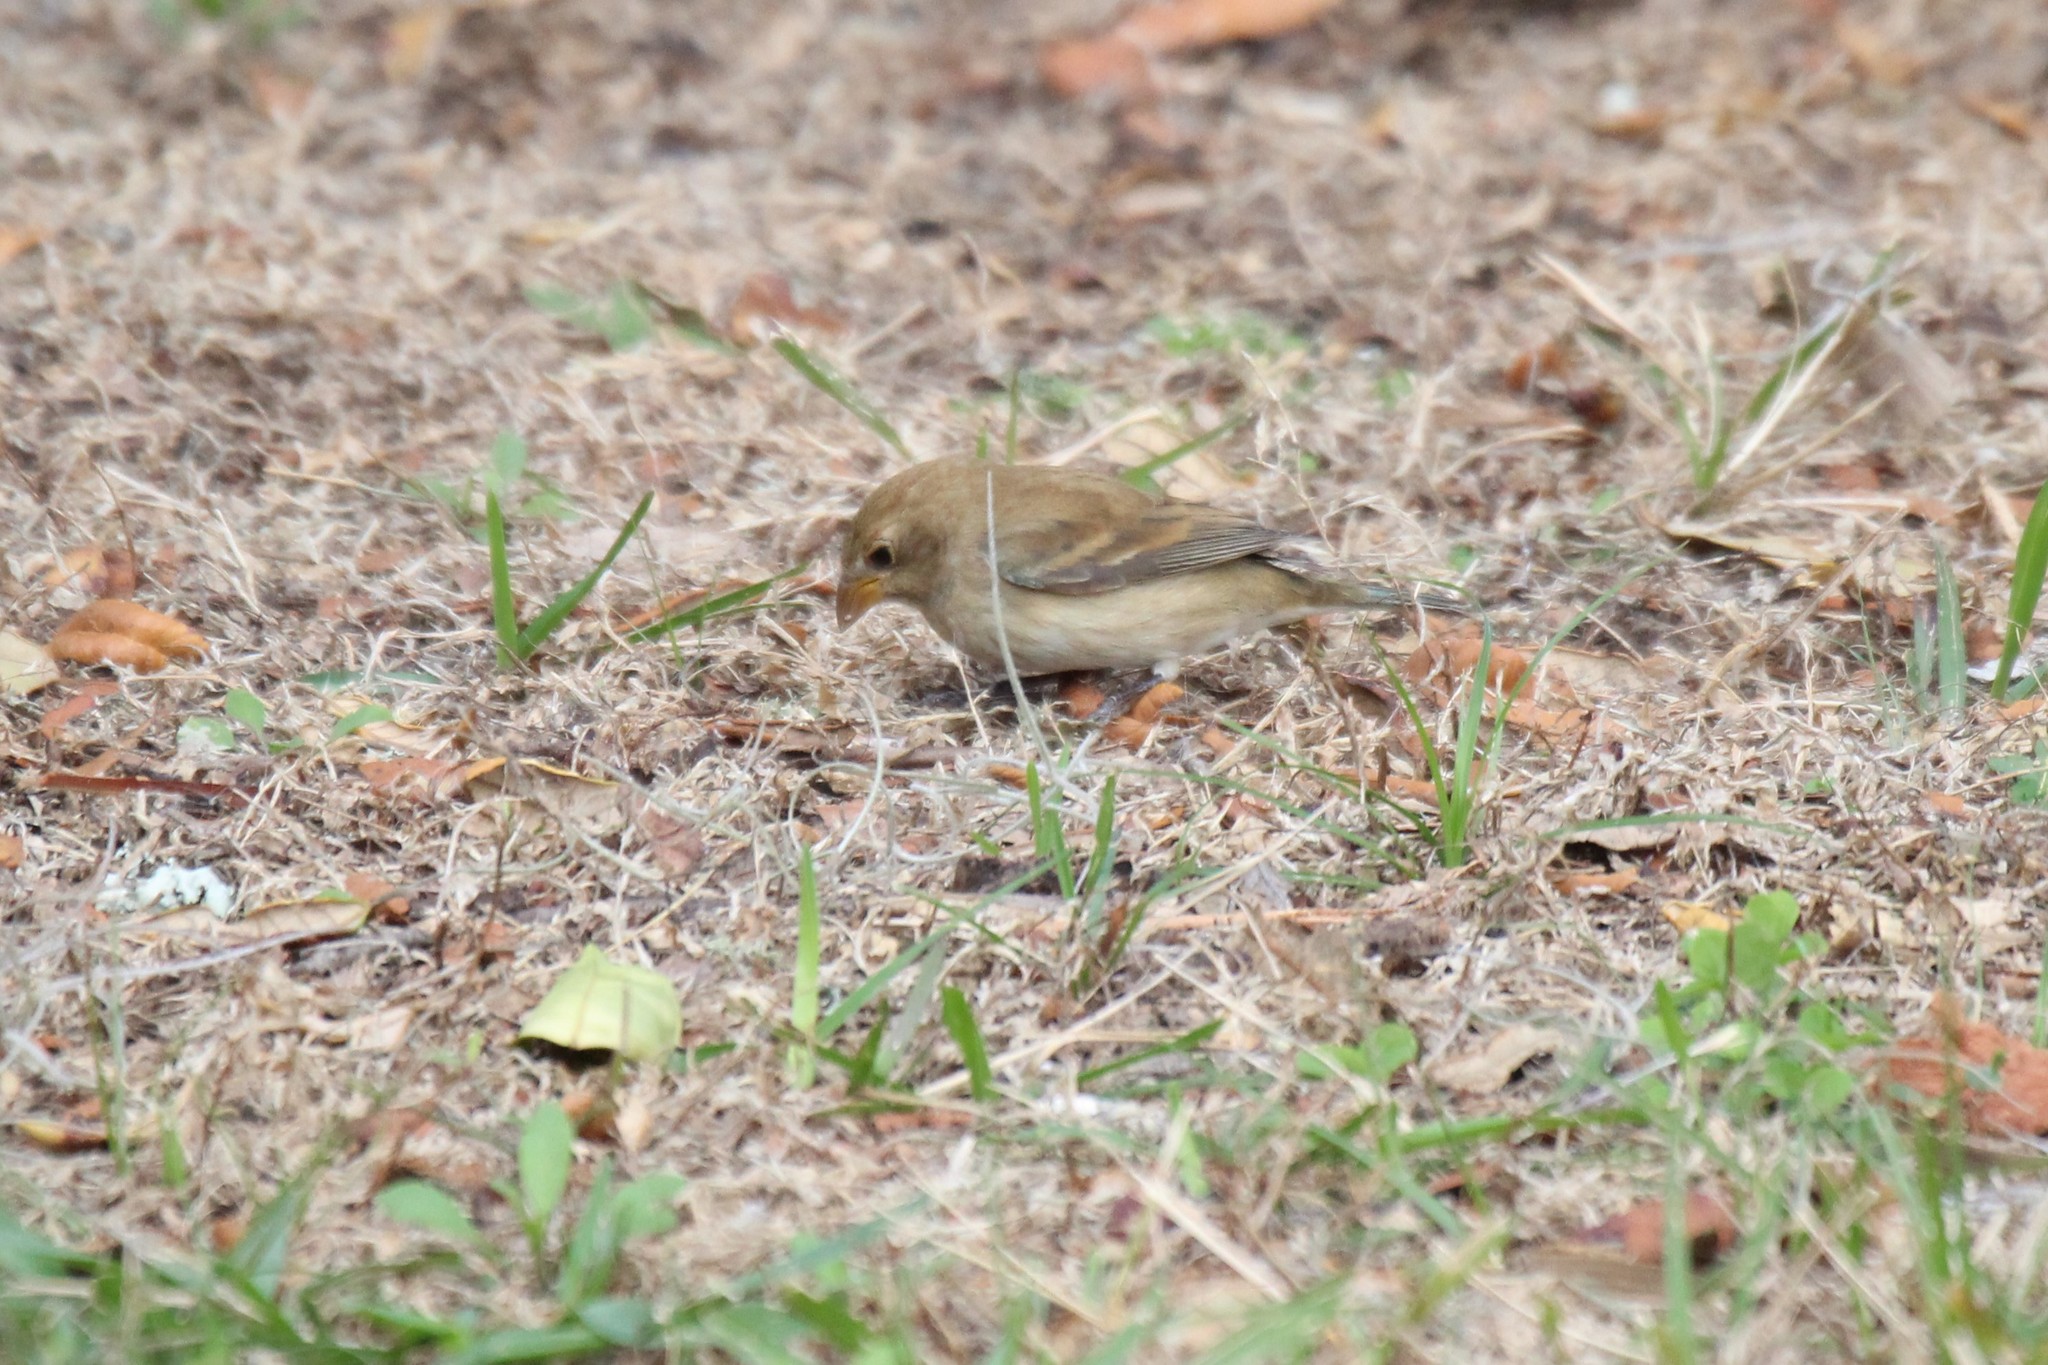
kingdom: Animalia
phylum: Chordata
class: Aves
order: Passeriformes
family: Cardinalidae
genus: Passerina
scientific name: Passerina cyanea
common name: Indigo bunting
